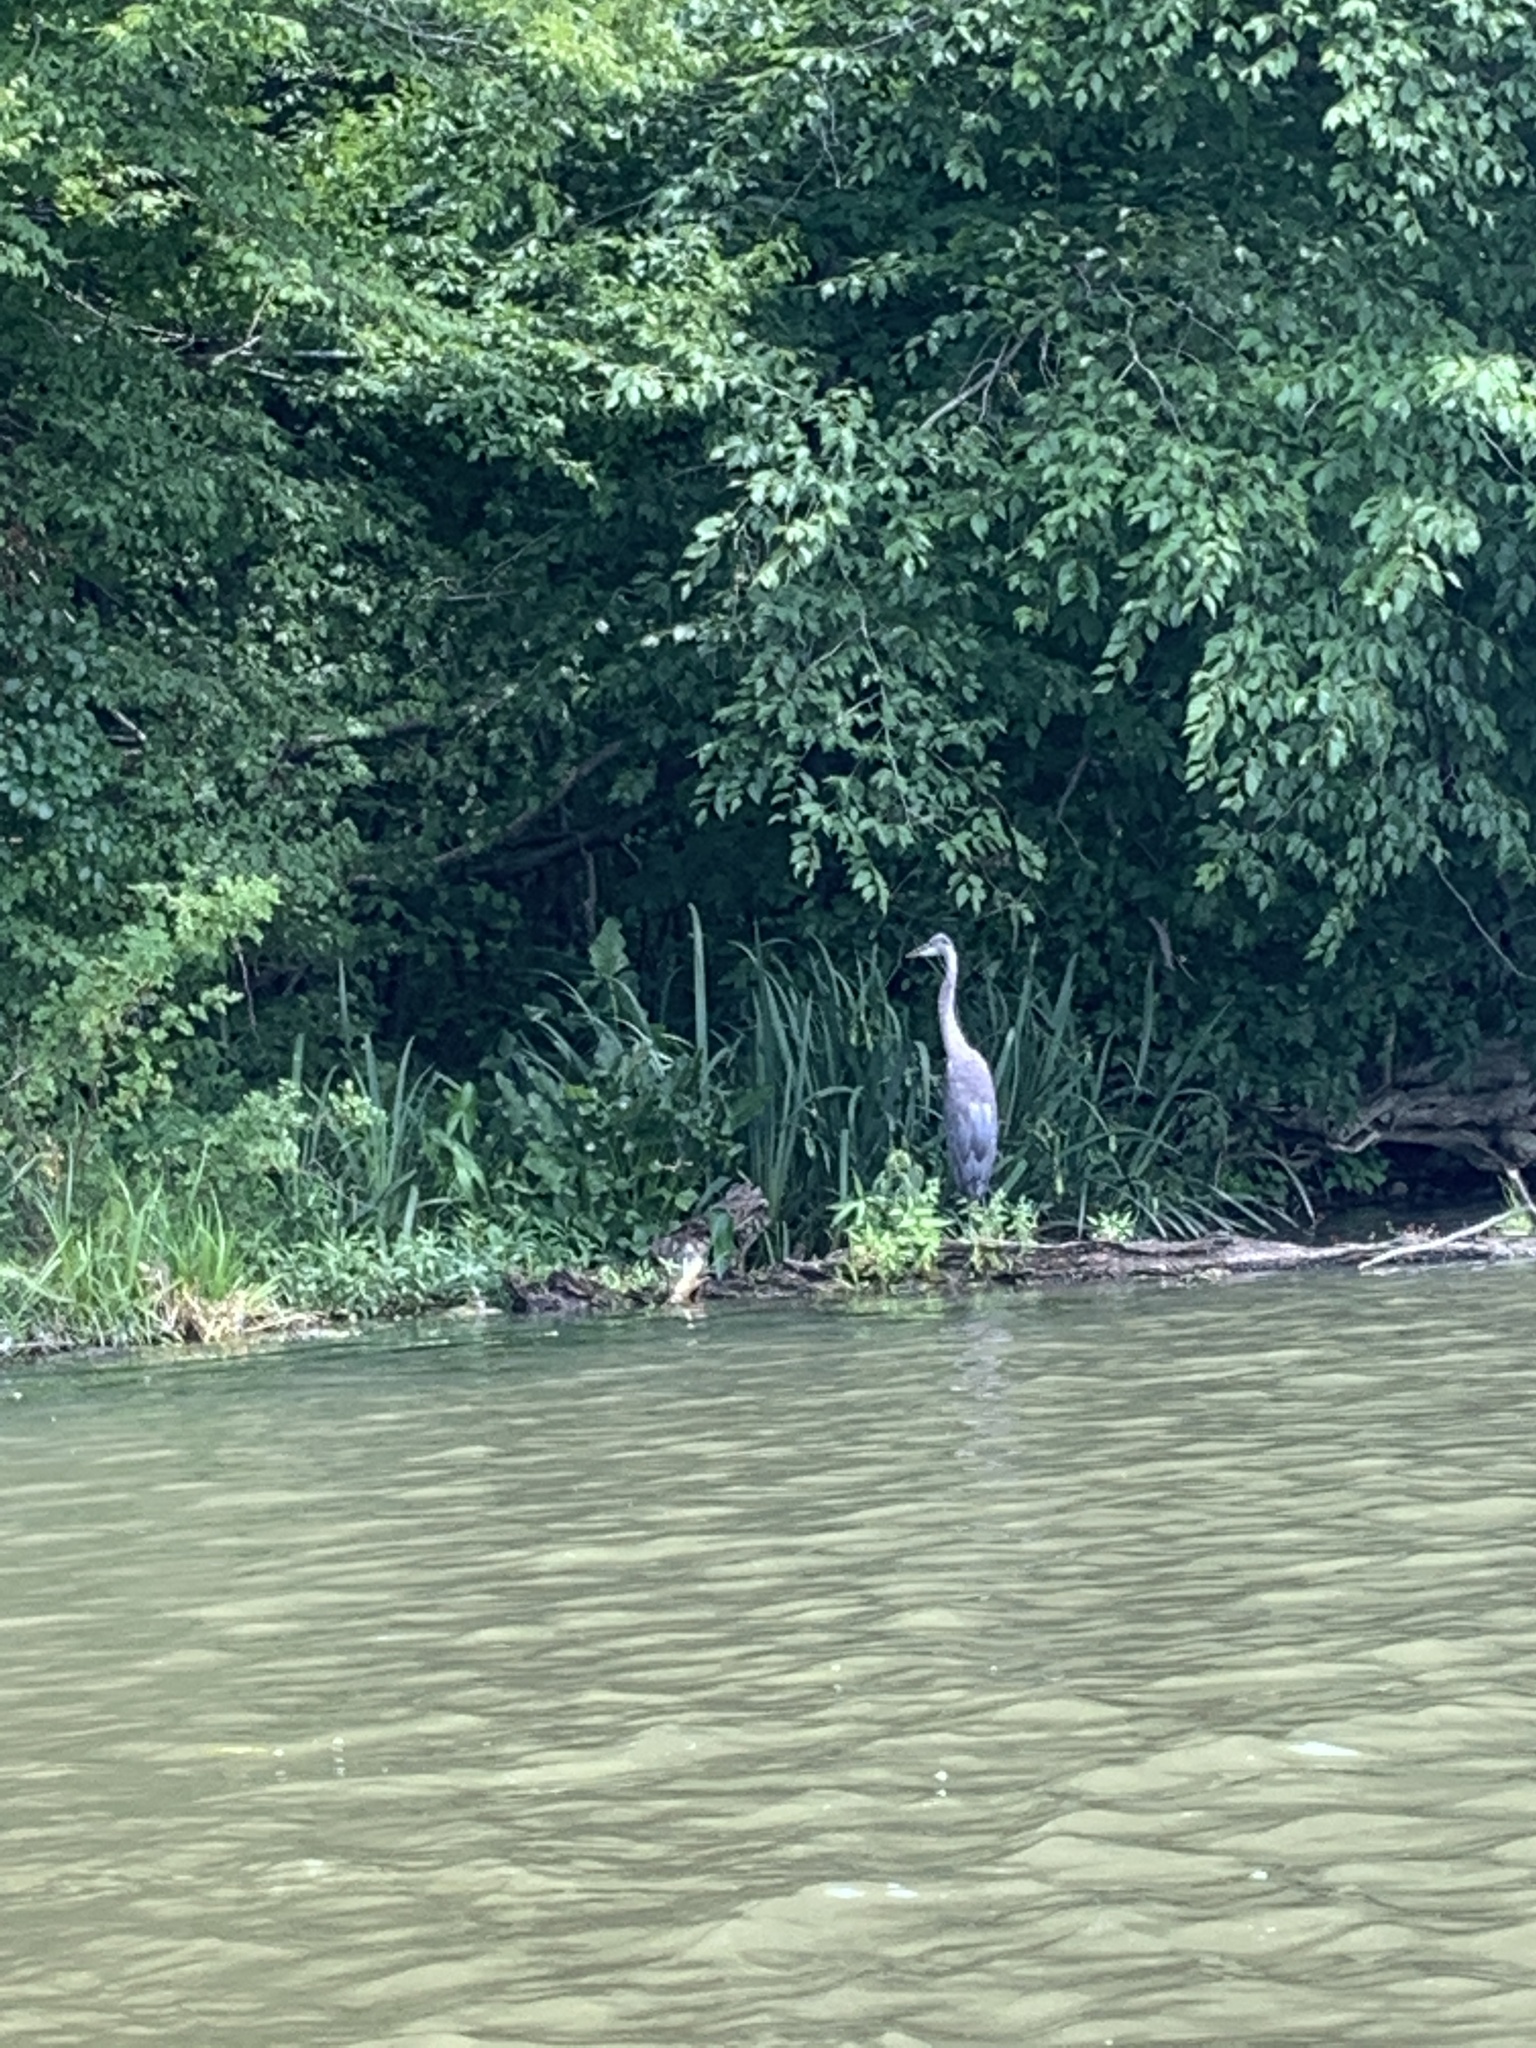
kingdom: Animalia
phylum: Chordata
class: Aves
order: Pelecaniformes
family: Ardeidae
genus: Ardea
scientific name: Ardea herodias
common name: Great blue heron
